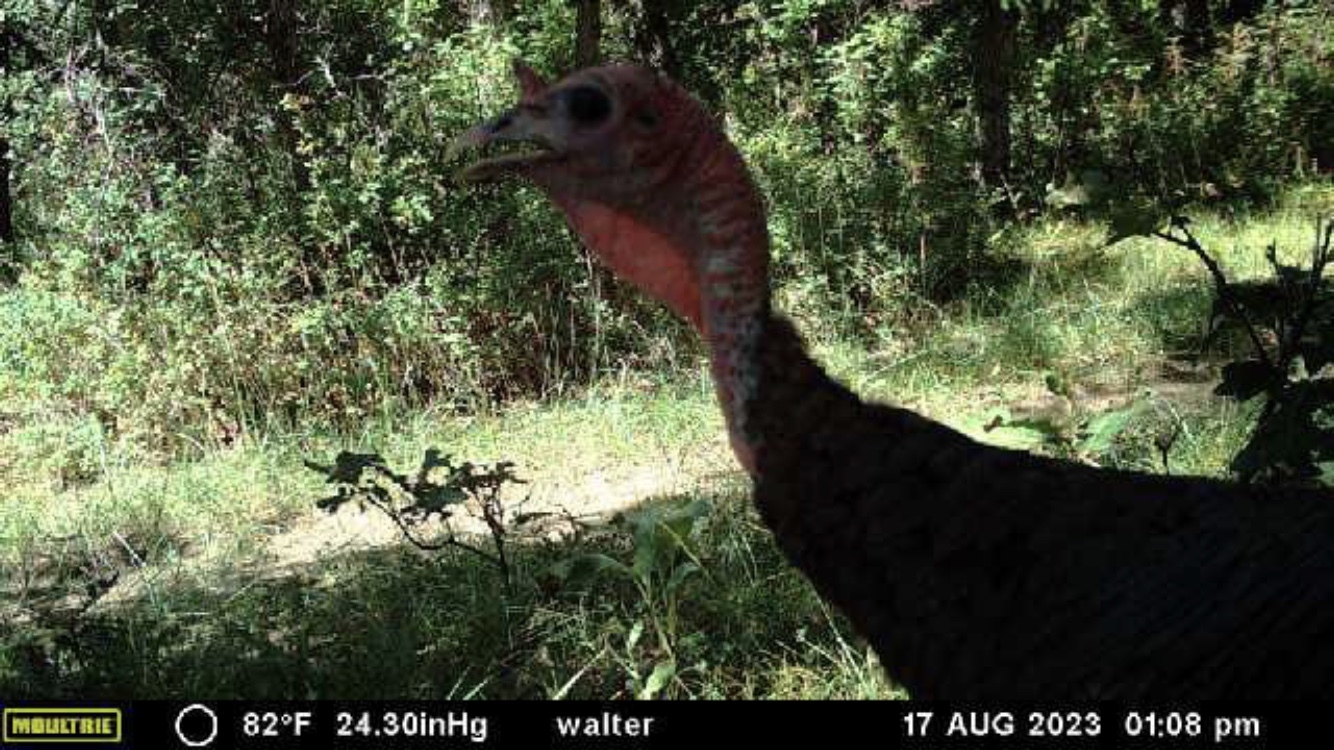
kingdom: Animalia
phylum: Chordata
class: Aves
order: Galliformes
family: Phasianidae
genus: Meleagris
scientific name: Meleagris gallopavo
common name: Wild turkey
